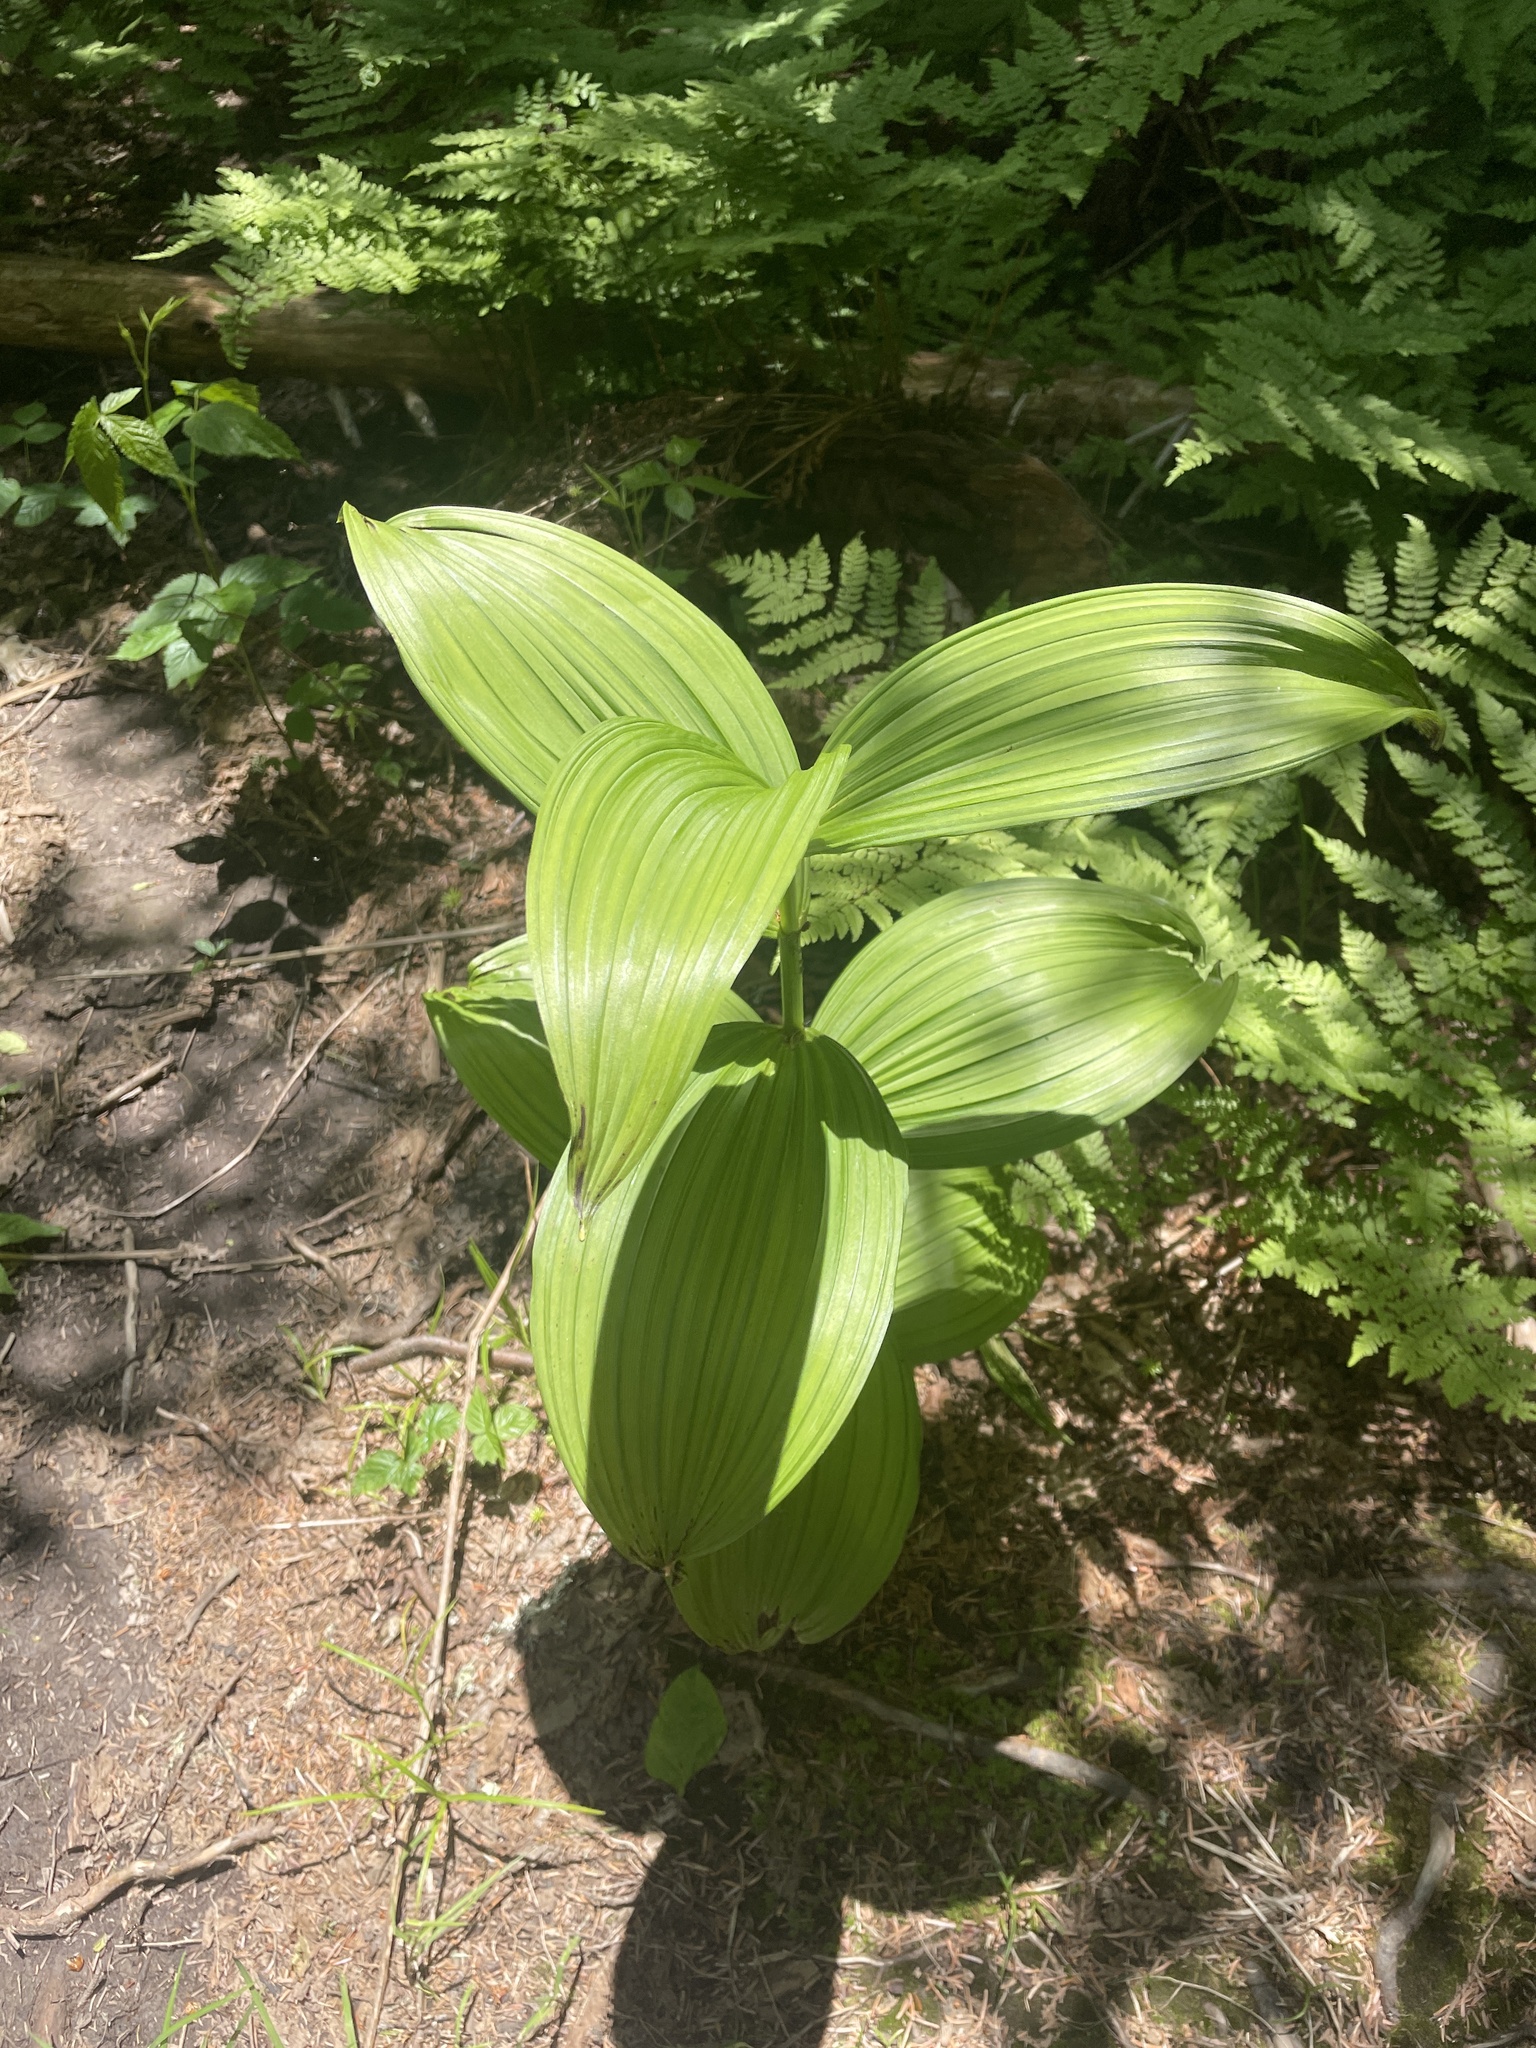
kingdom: Plantae
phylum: Tracheophyta
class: Liliopsida
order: Liliales
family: Melanthiaceae
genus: Veratrum
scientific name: Veratrum viride
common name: American false hellebore
